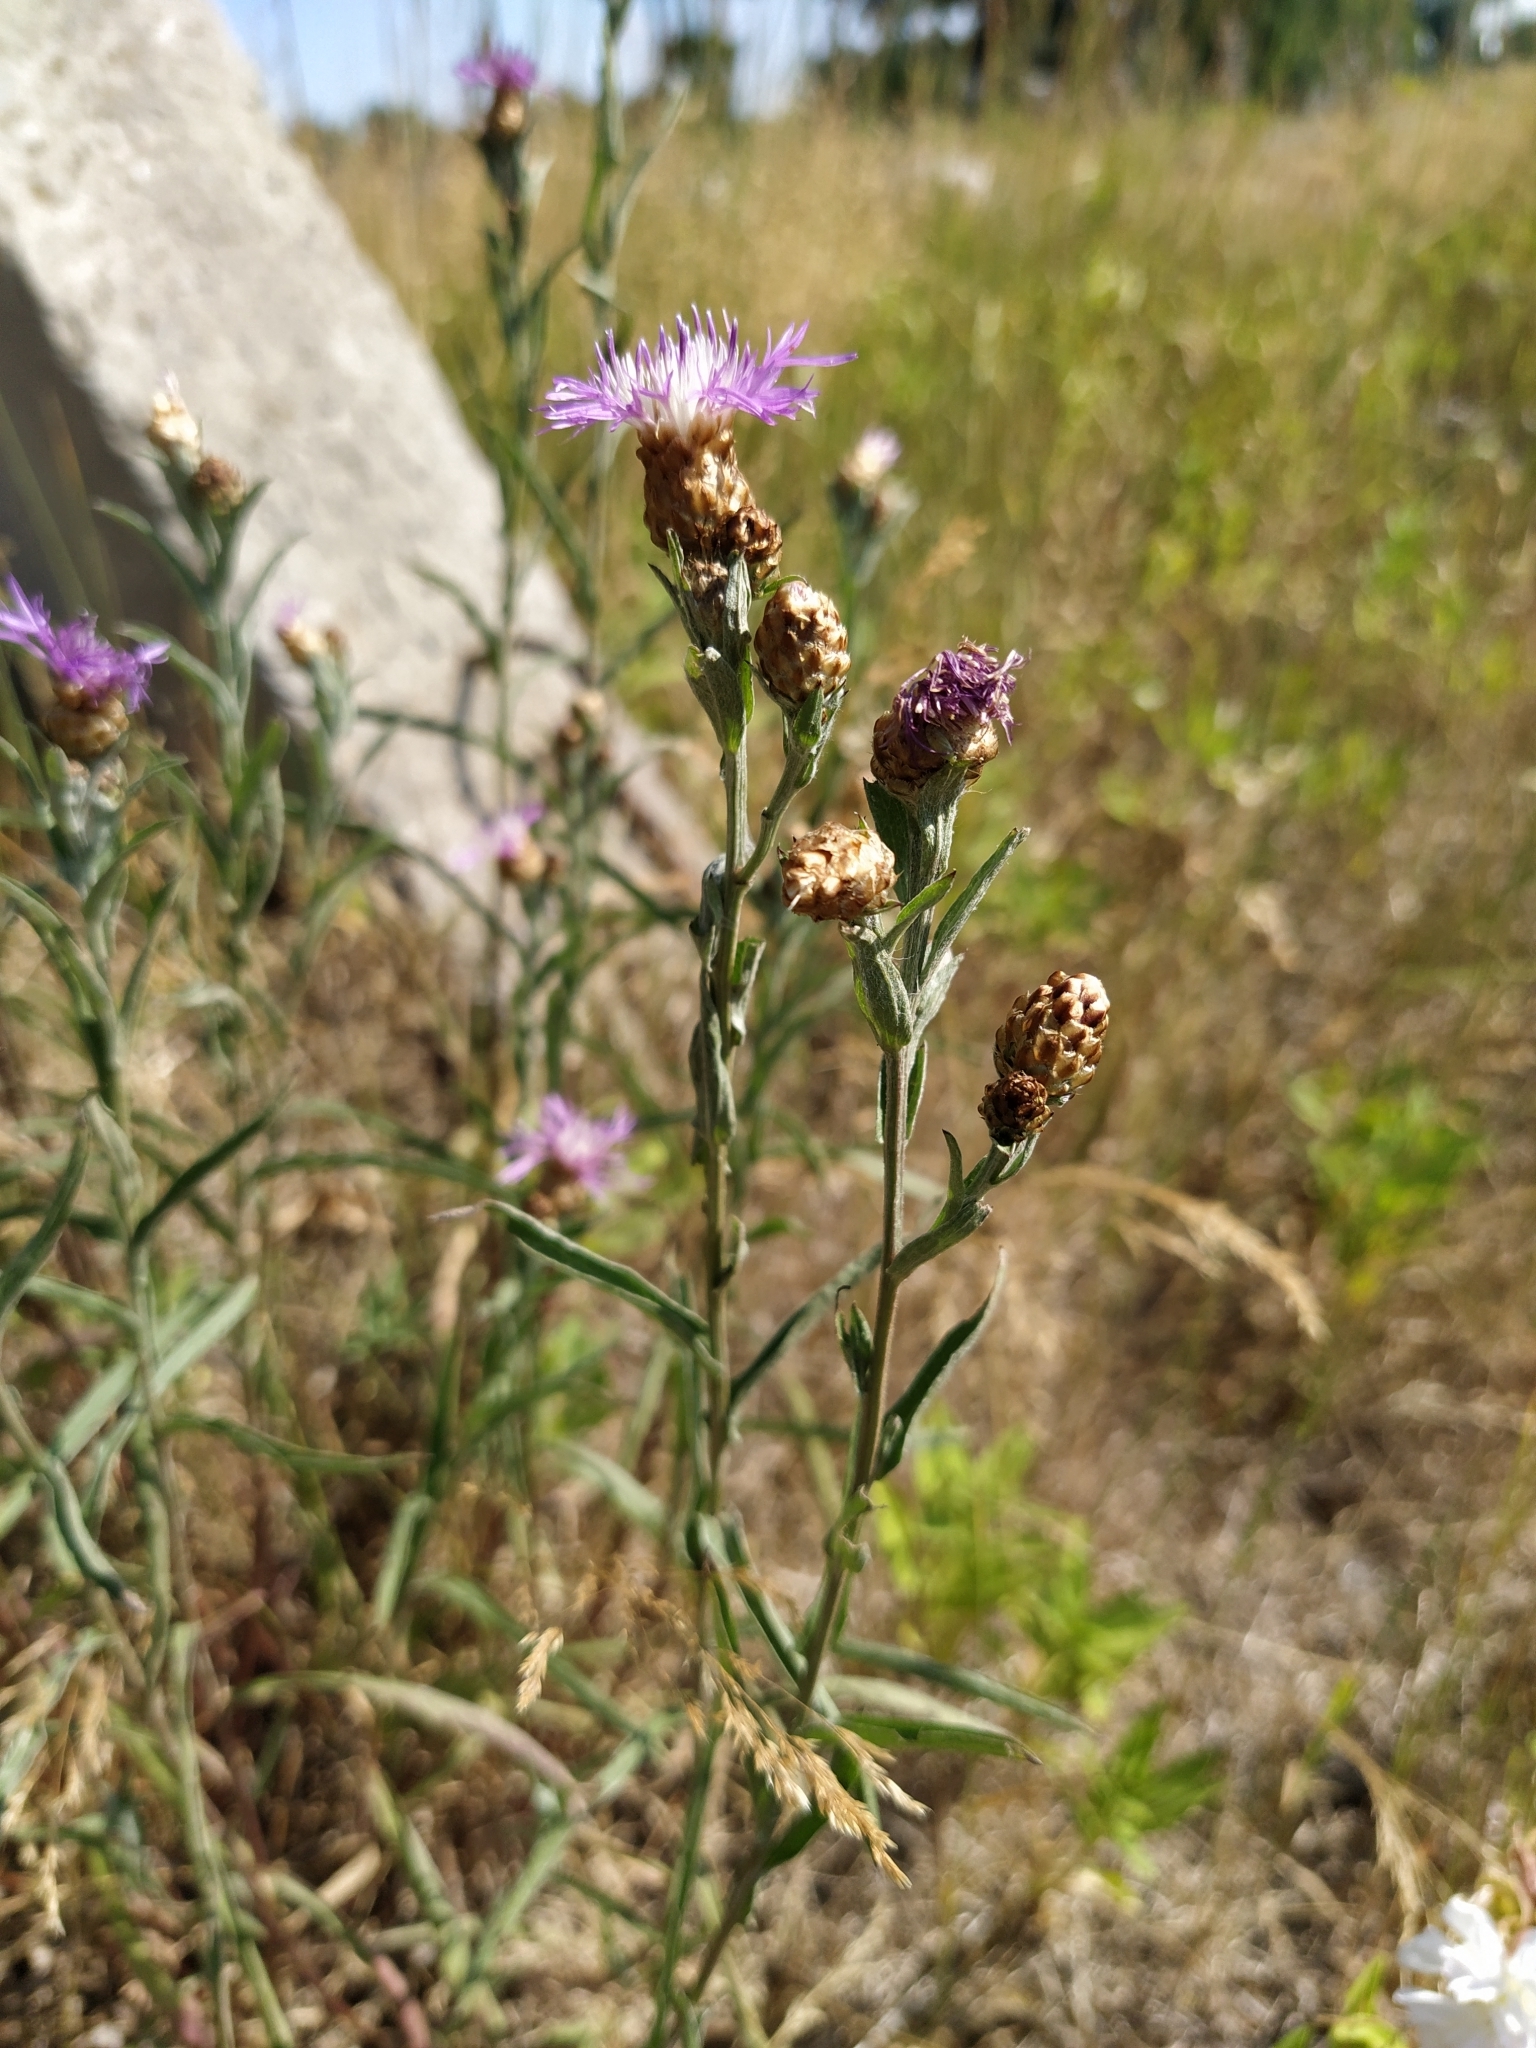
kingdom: Plantae
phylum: Tracheophyta
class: Magnoliopsida
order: Asterales
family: Asteraceae
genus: Centaurea
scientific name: Centaurea jacea
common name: Brown knapweed
